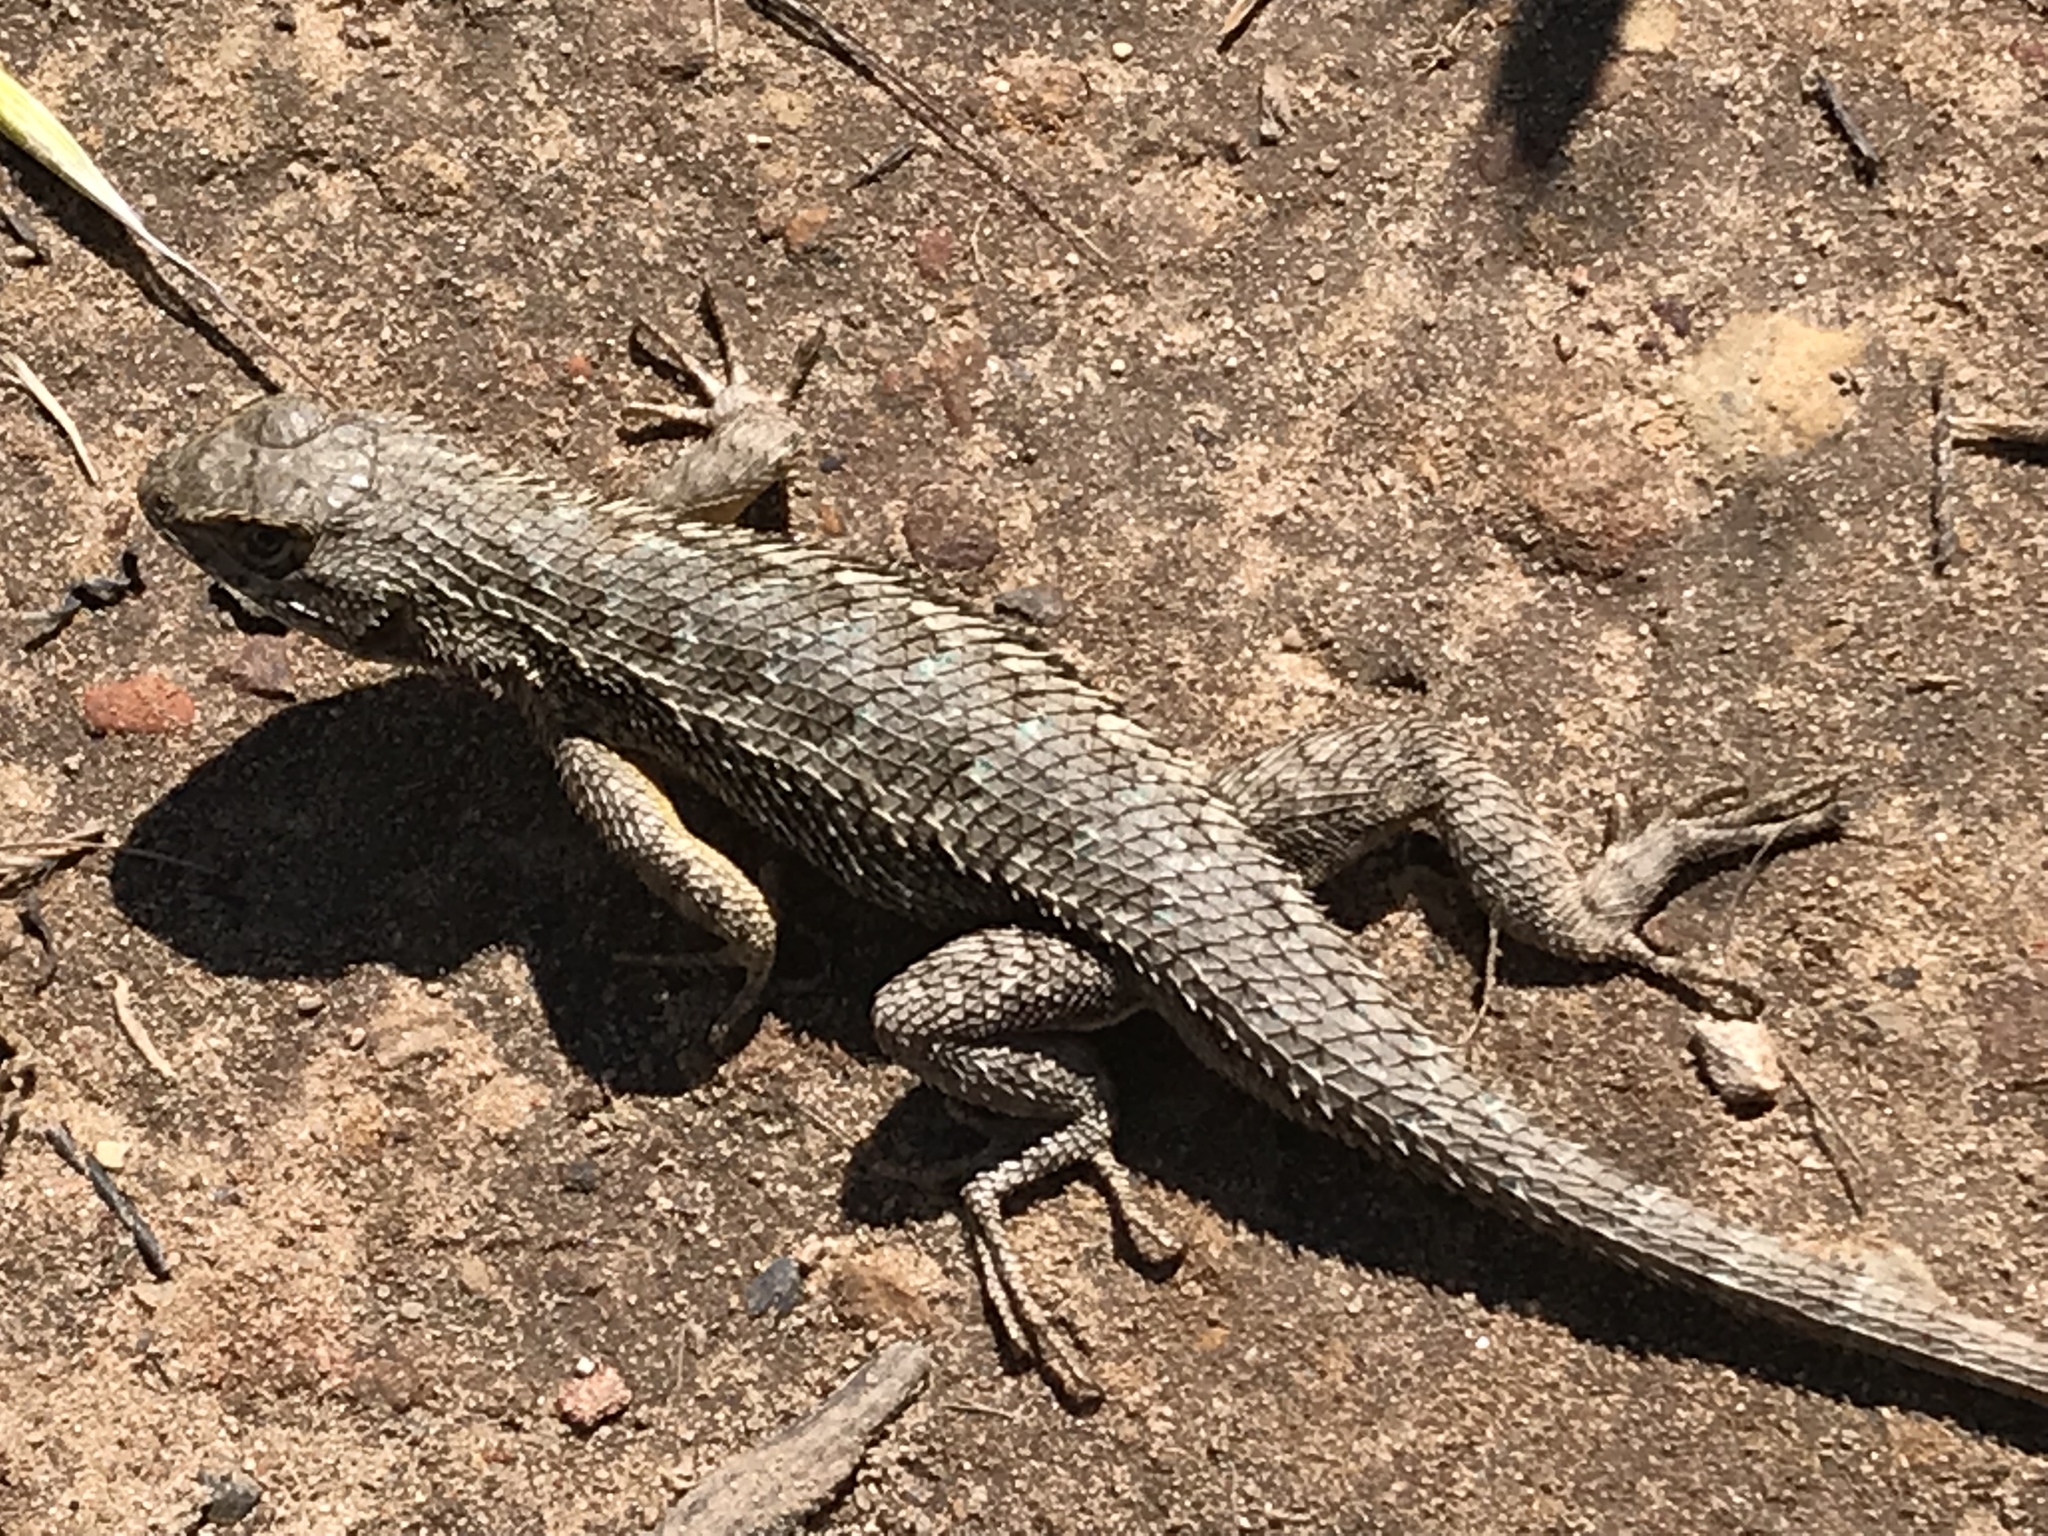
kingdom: Animalia
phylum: Chordata
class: Squamata
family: Phrynosomatidae
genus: Sceloporus
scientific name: Sceloporus occidentalis
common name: Western fence lizard
